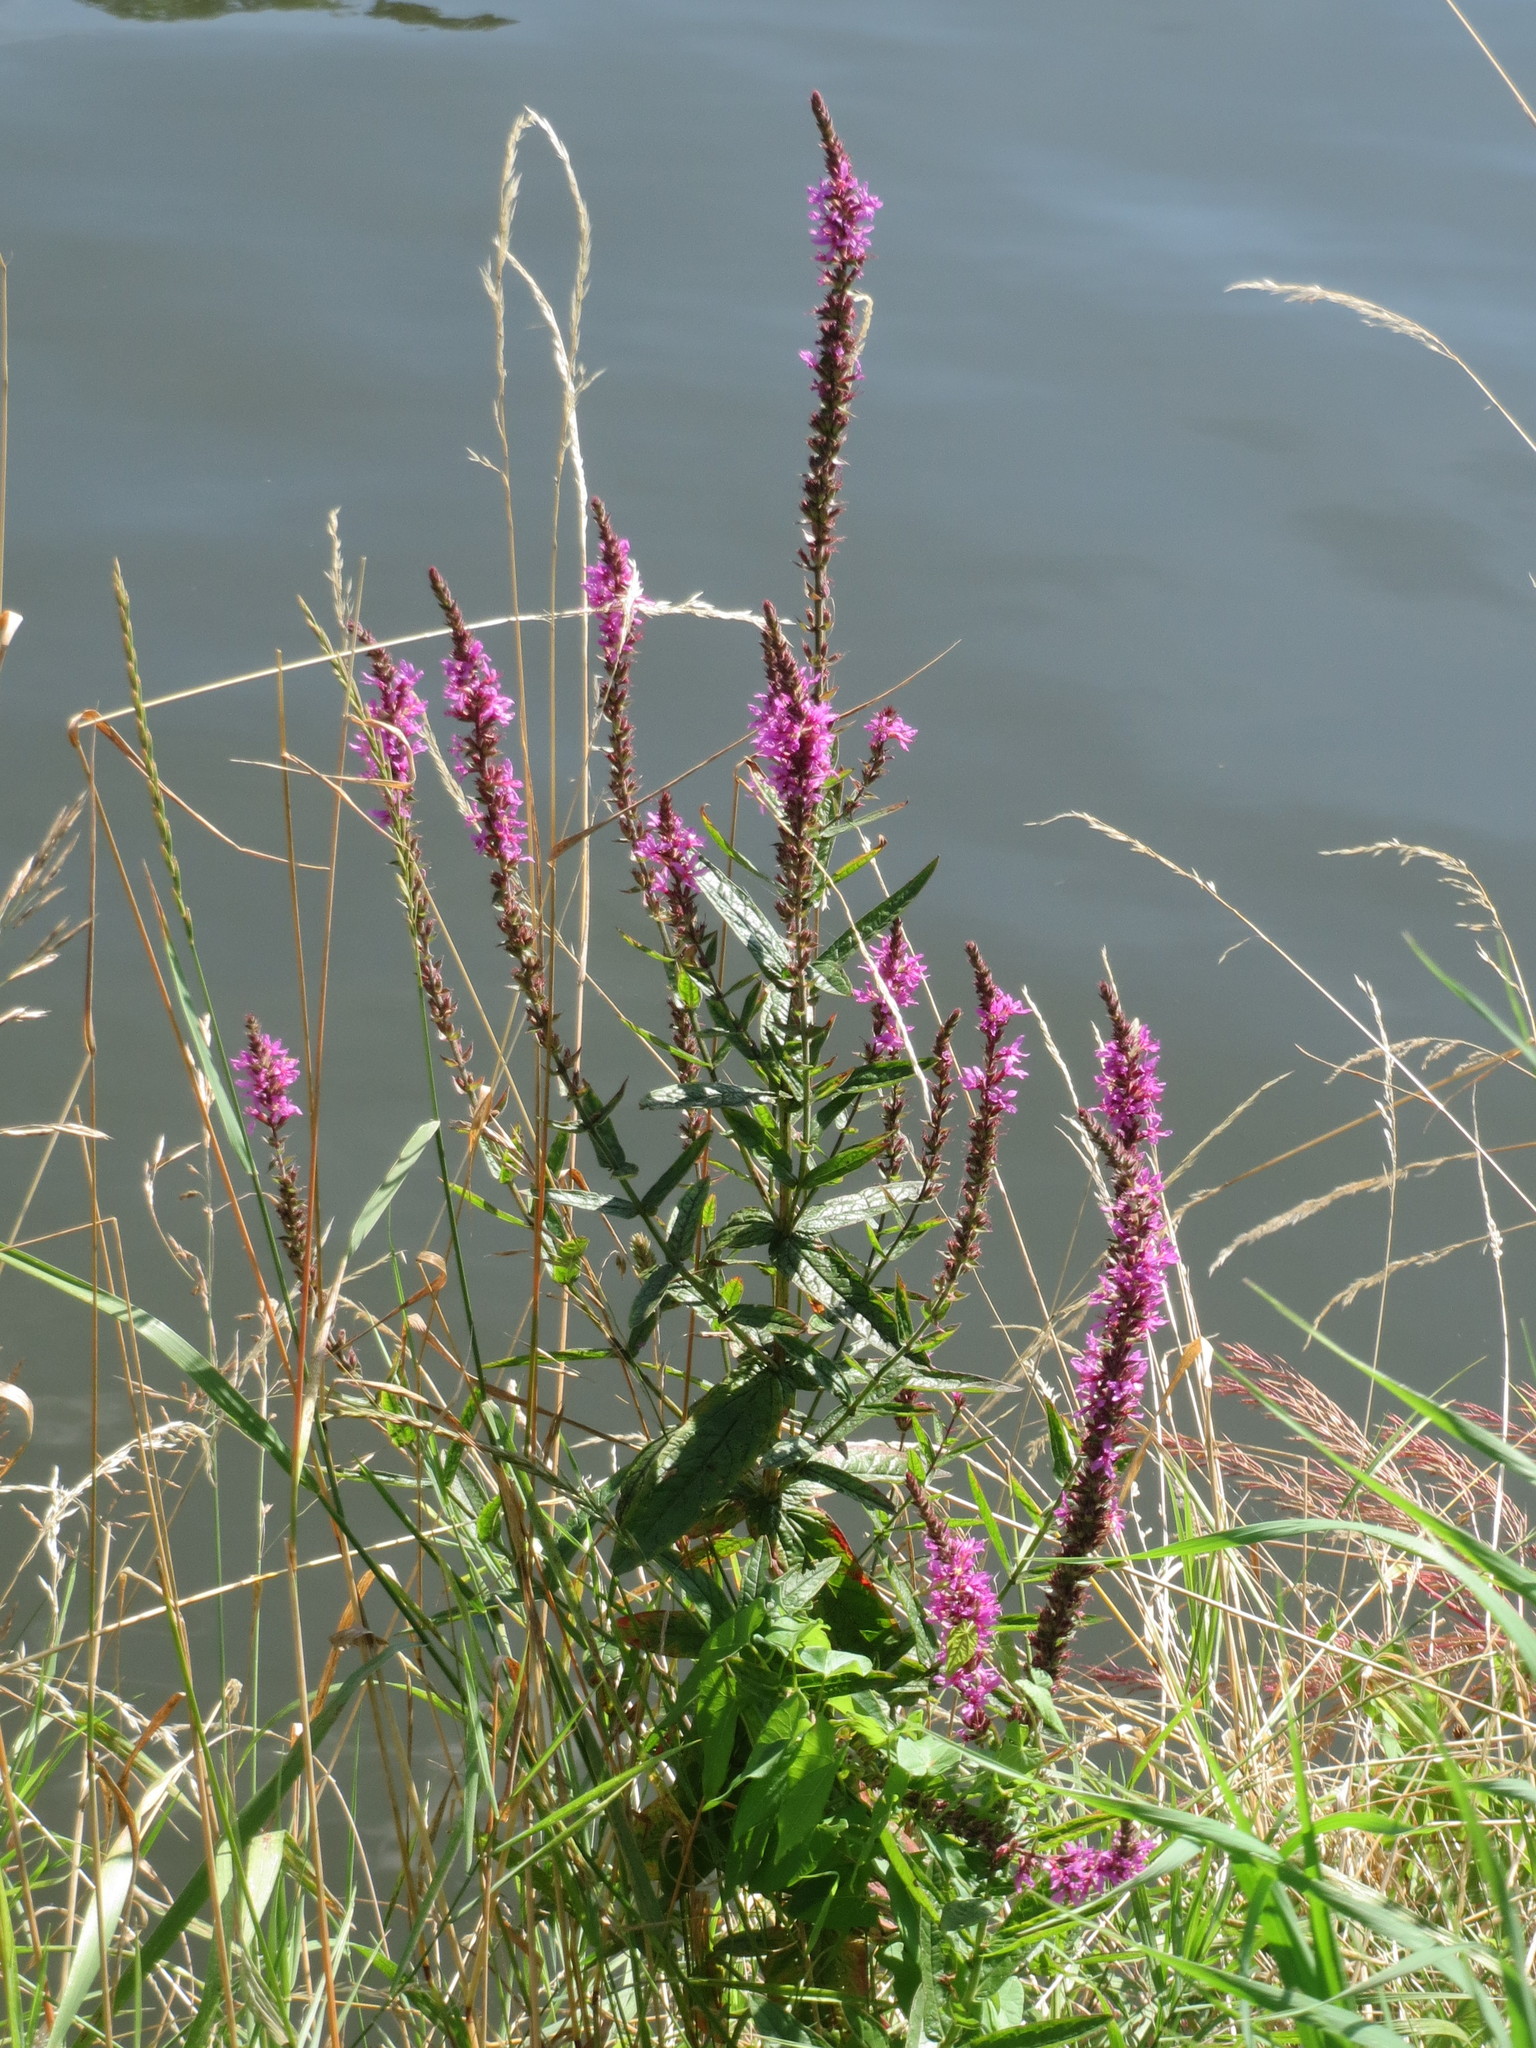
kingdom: Plantae
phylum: Tracheophyta
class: Magnoliopsida
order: Myrtales
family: Lythraceae
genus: Lythrum
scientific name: Lythrum salicaria
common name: Purple loosestrife
